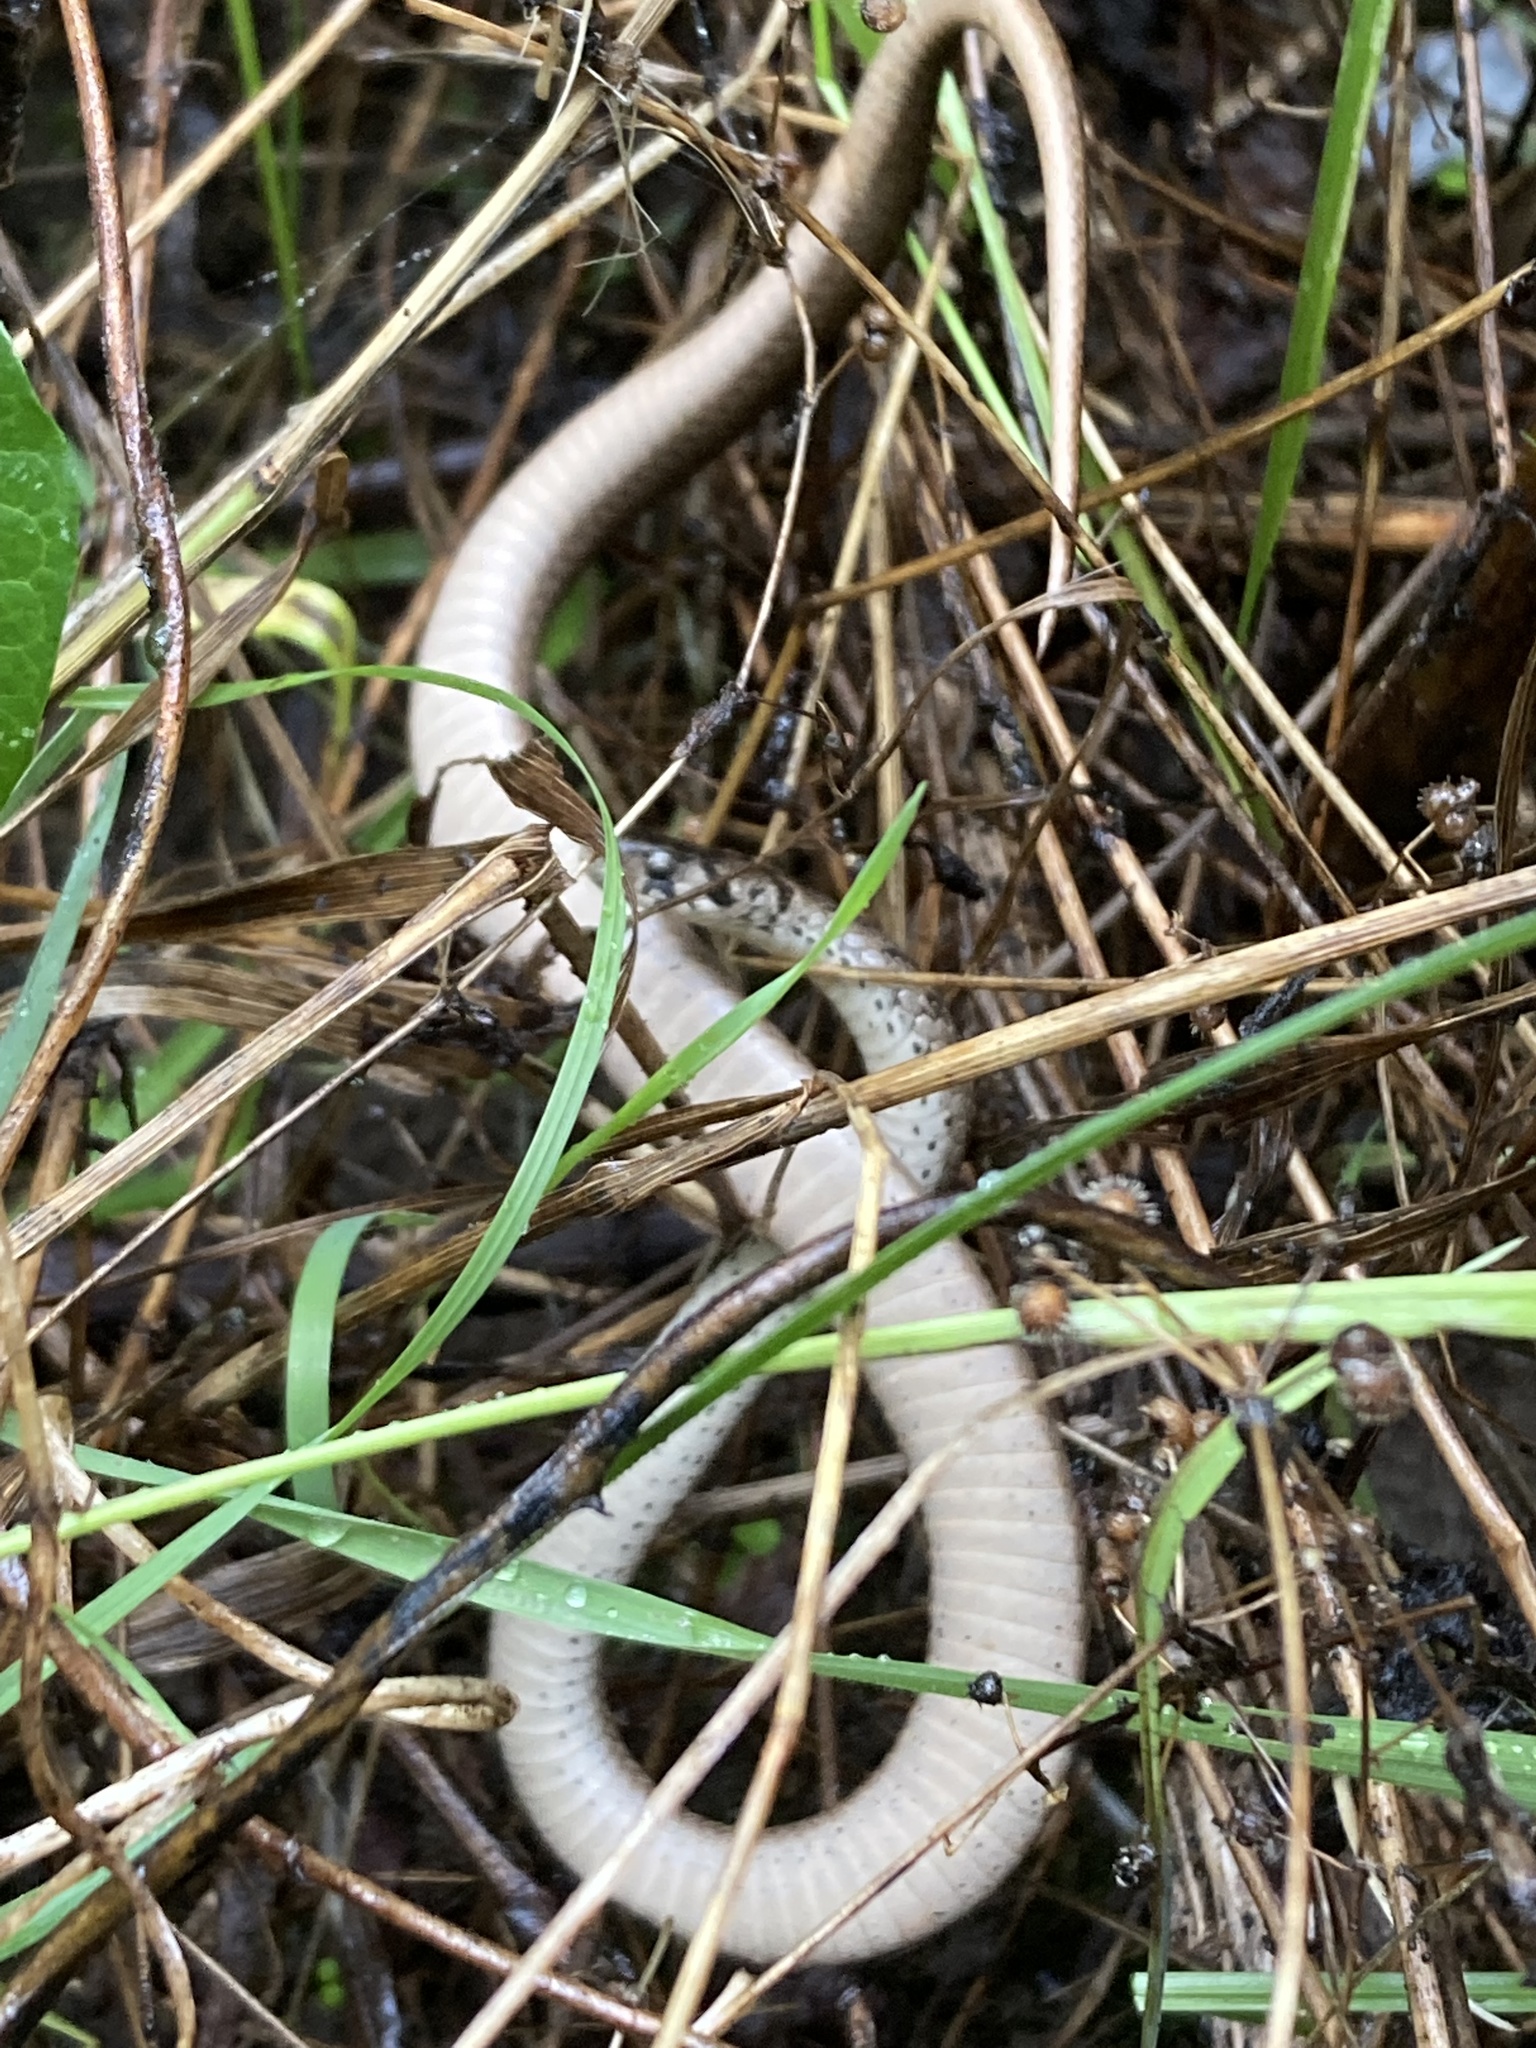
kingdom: Animalia
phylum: Chordata
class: Squamata
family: Colubridae
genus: Storeria
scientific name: Storeria dekayi
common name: (dekay’s) brown snake
